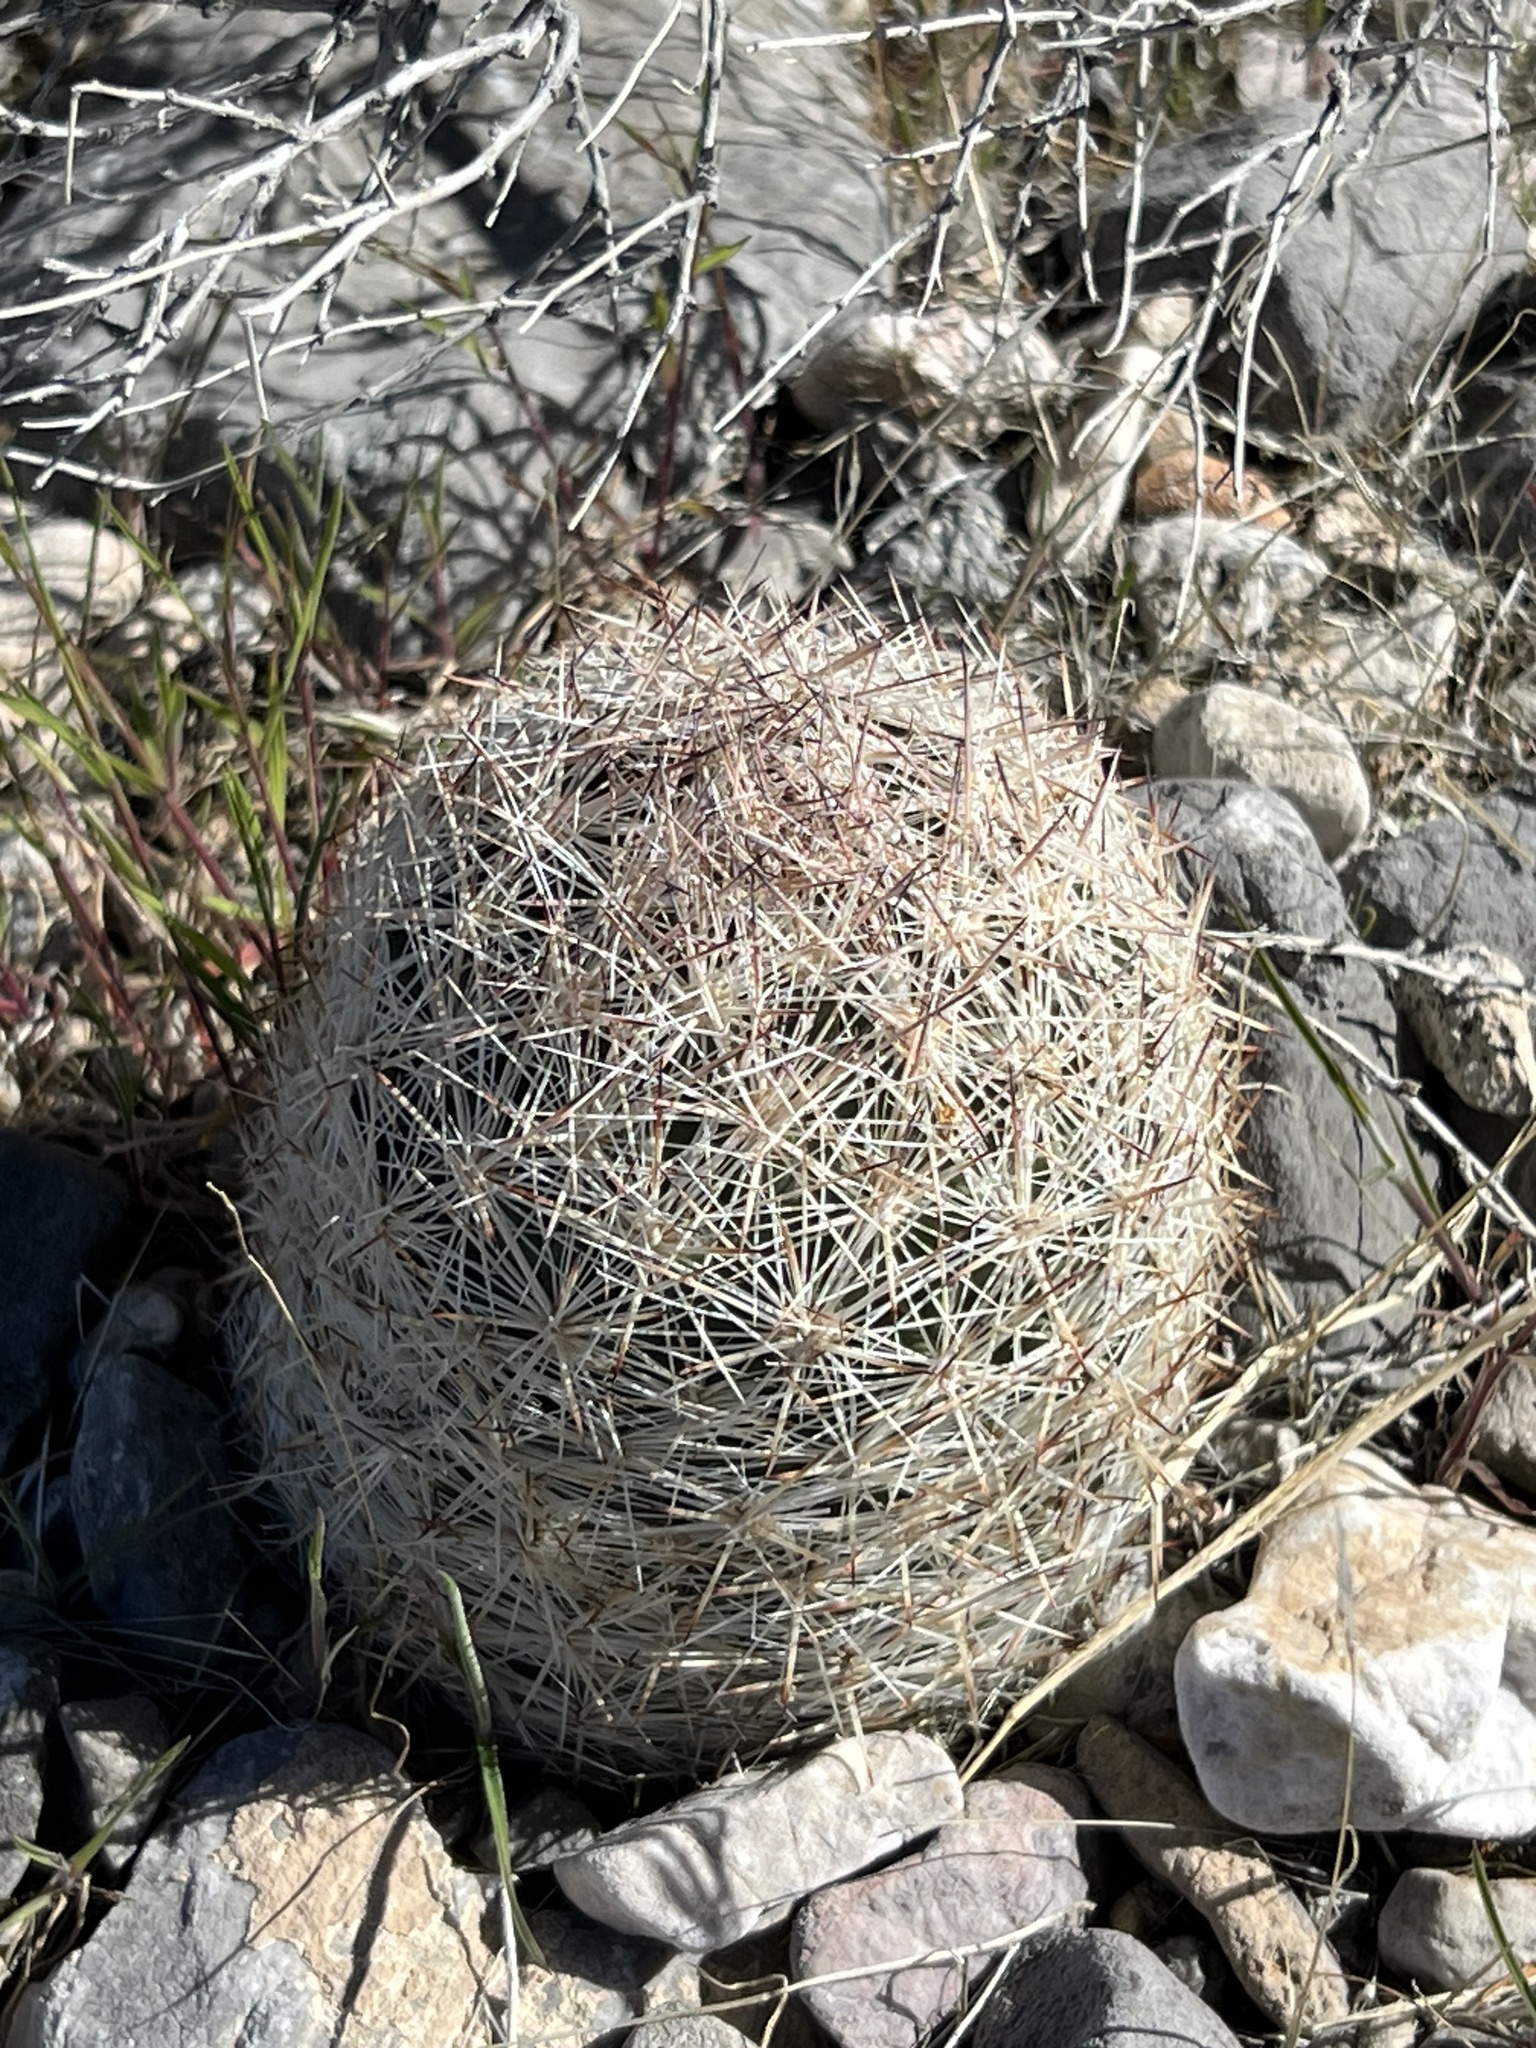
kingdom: Plantae
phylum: Tracheophyta
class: Magnoliopsida
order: Caryophyllales
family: Cactaceae
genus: Pelecyphora
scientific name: Pelecyphora dasyacantha
